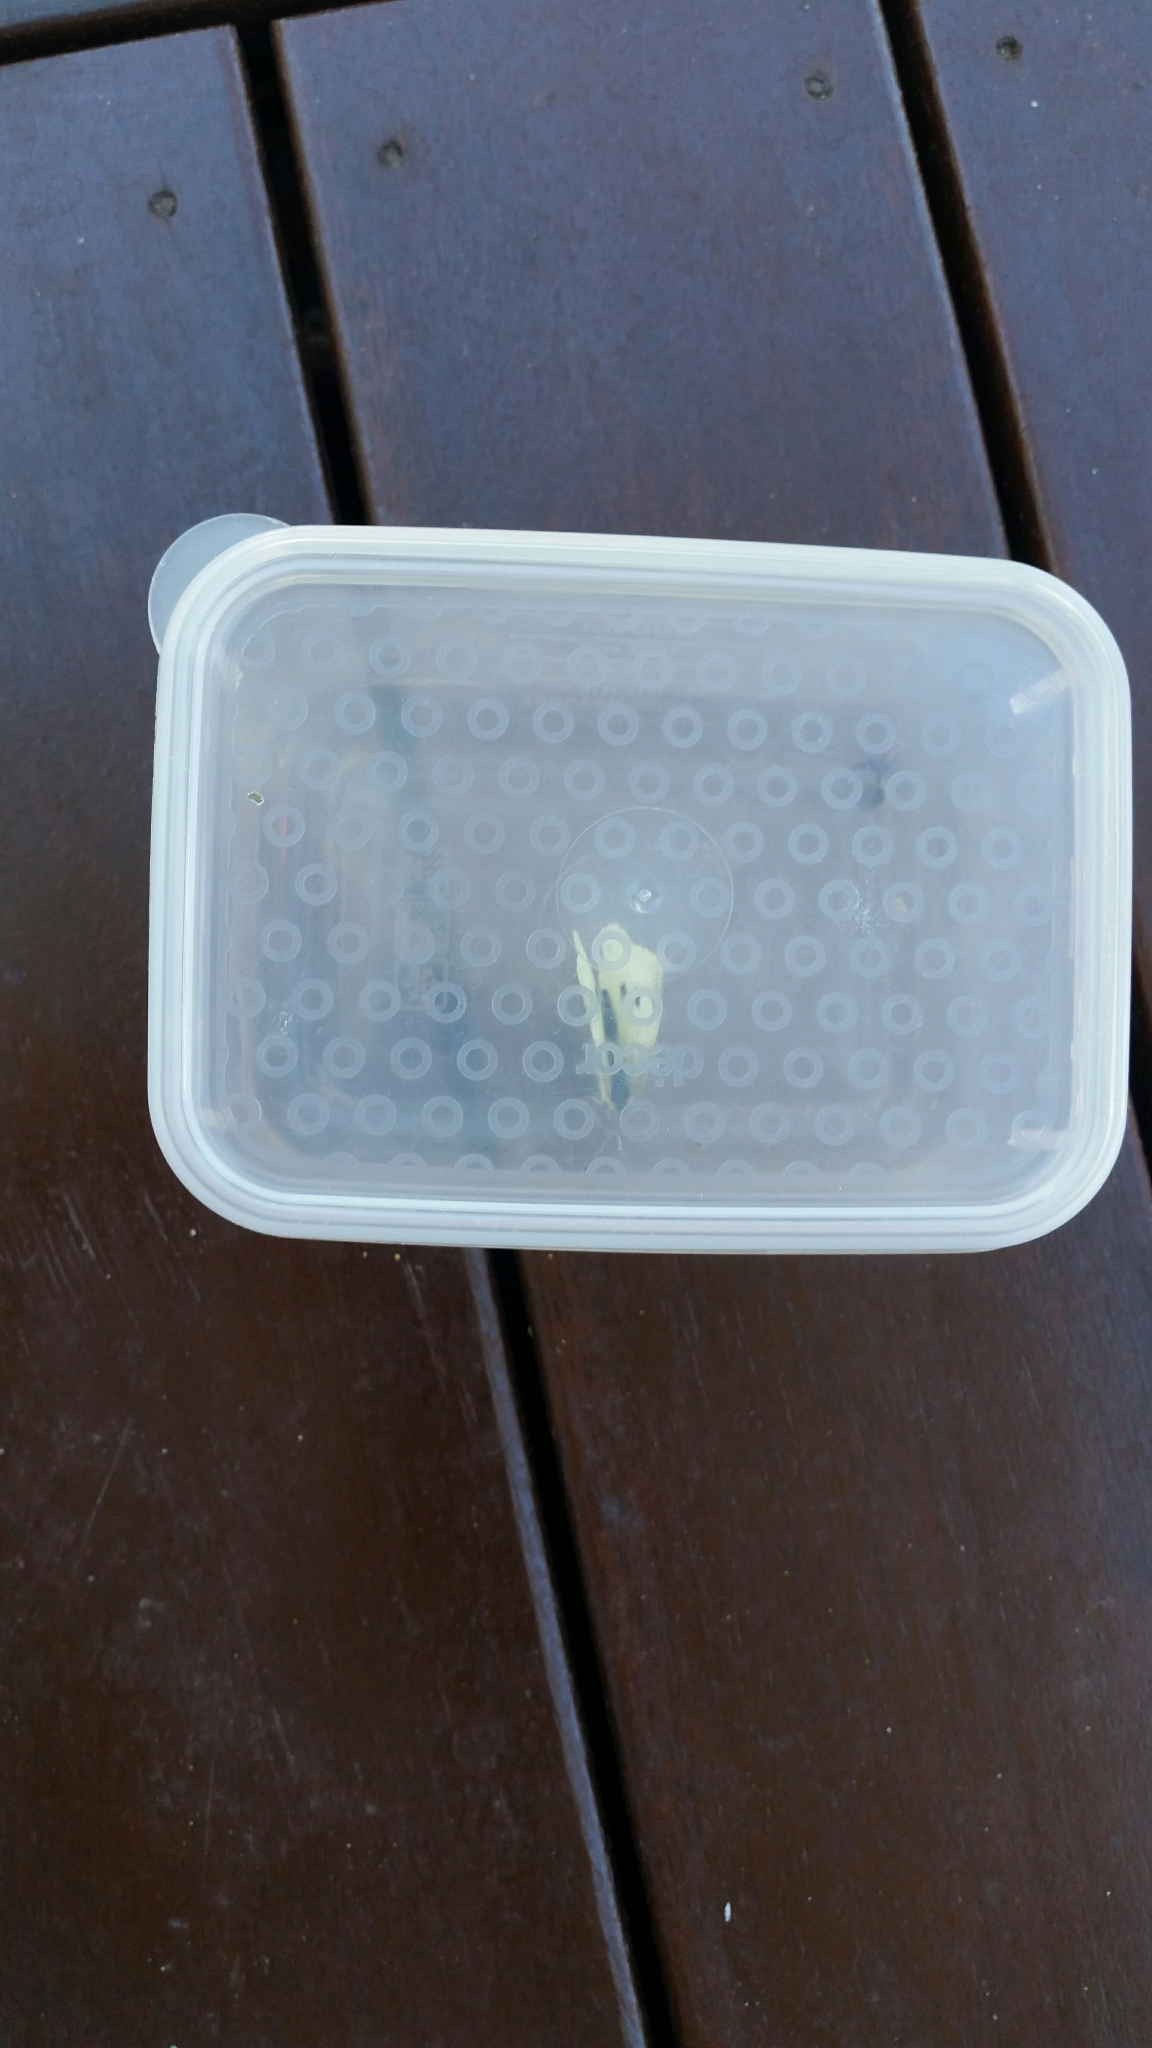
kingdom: Animalia
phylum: Arthropoda
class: Insecta
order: Lepidoptera
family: Pieridae
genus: Pieris
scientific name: Pieris rapae
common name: Small white
